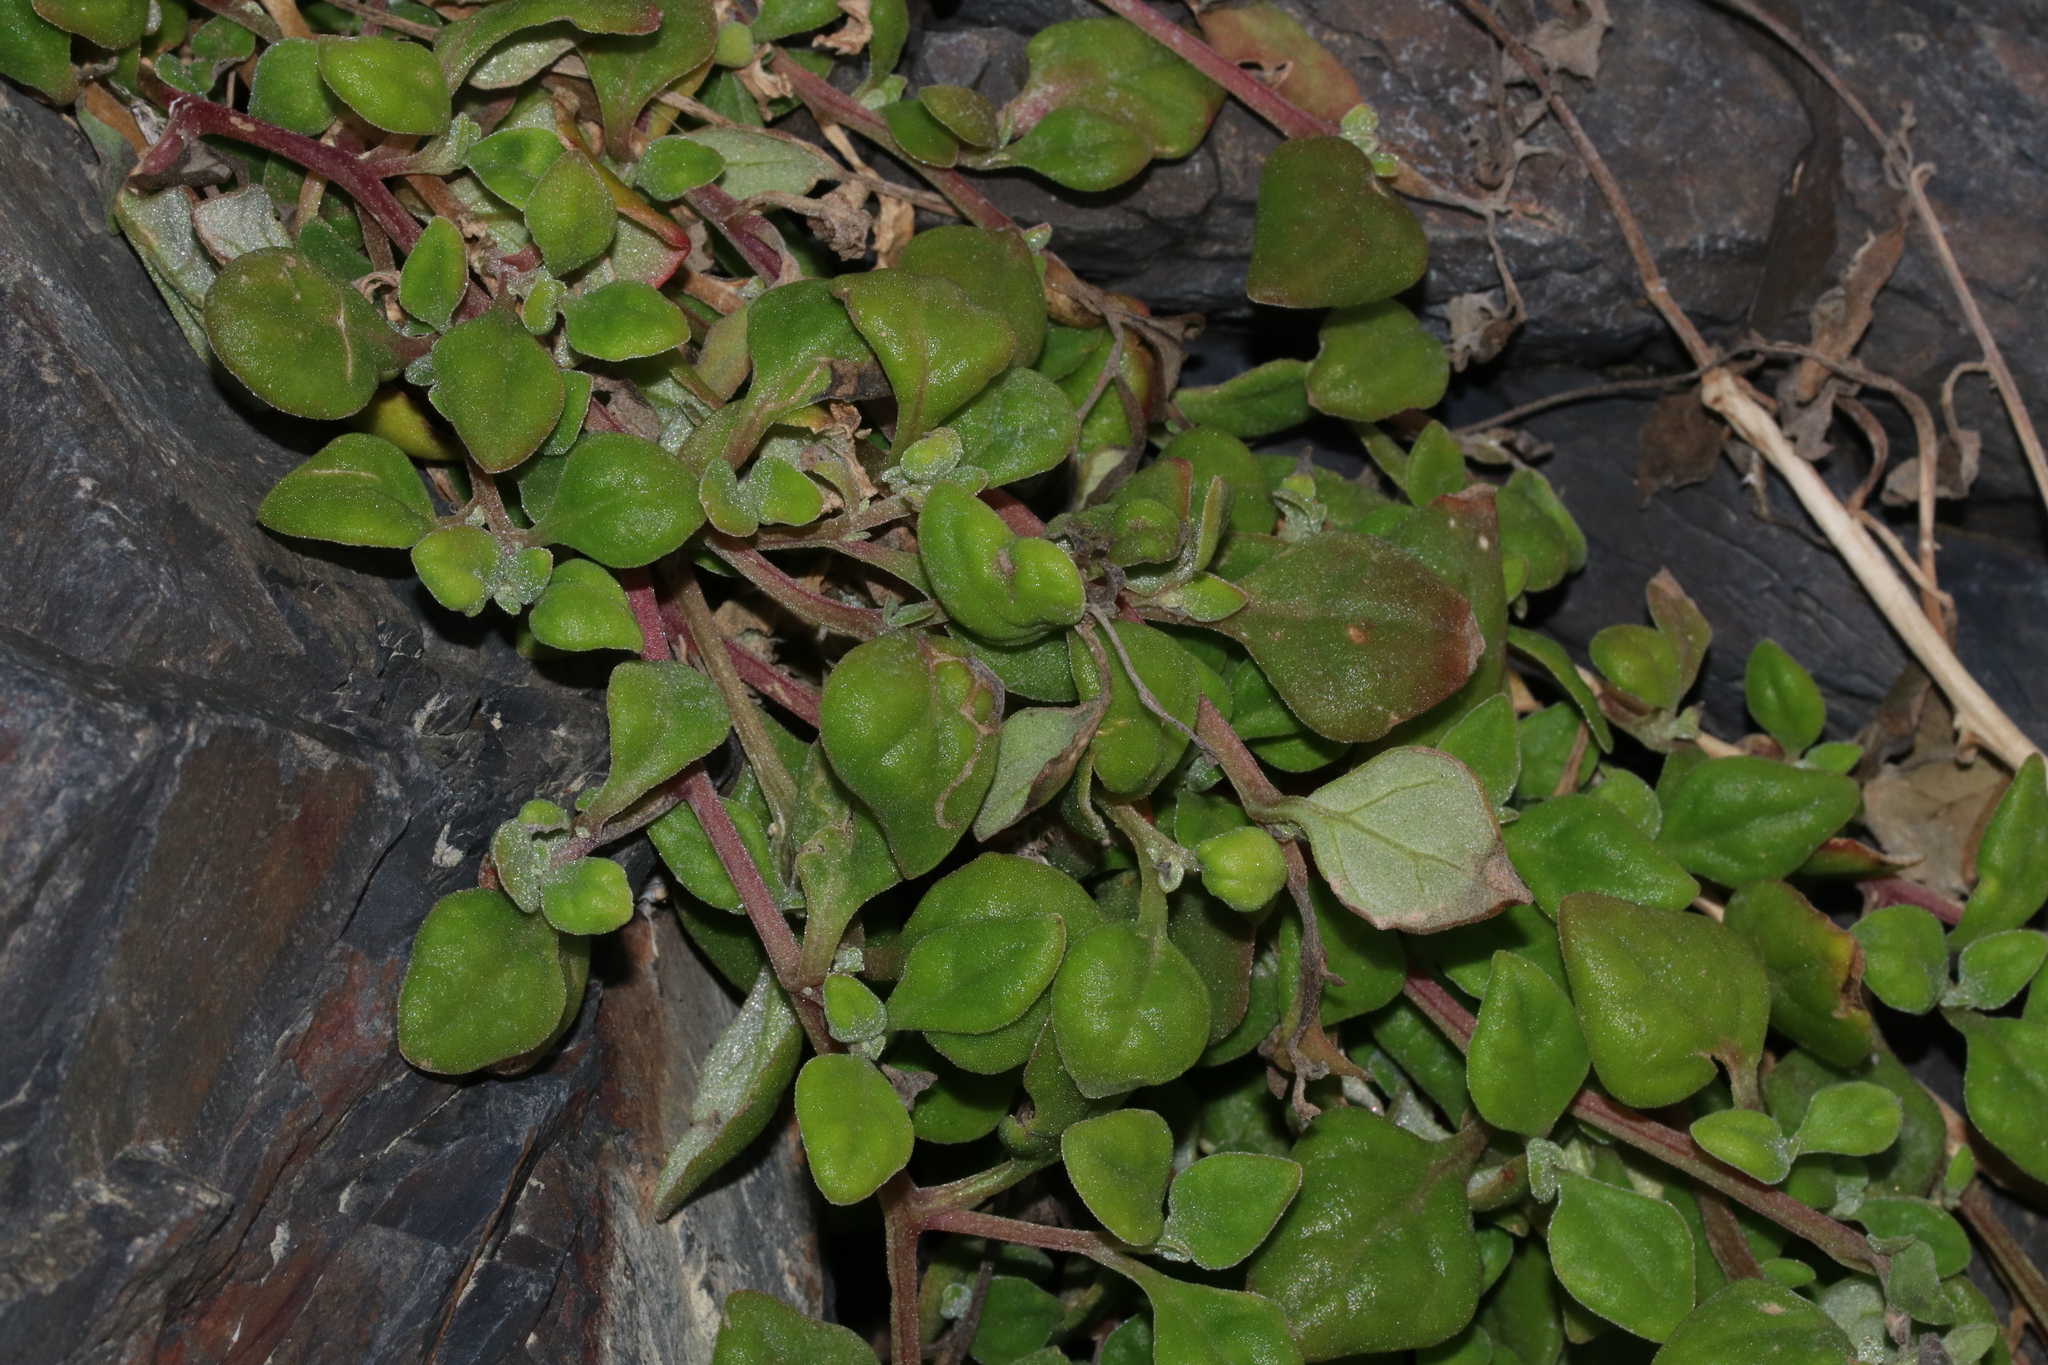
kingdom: Plantae
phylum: Tracheophyta
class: Magnoliopsida
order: Caryophyllales
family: Aizoaceae
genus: Tetragonia
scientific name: Tetragonia implexicoma
